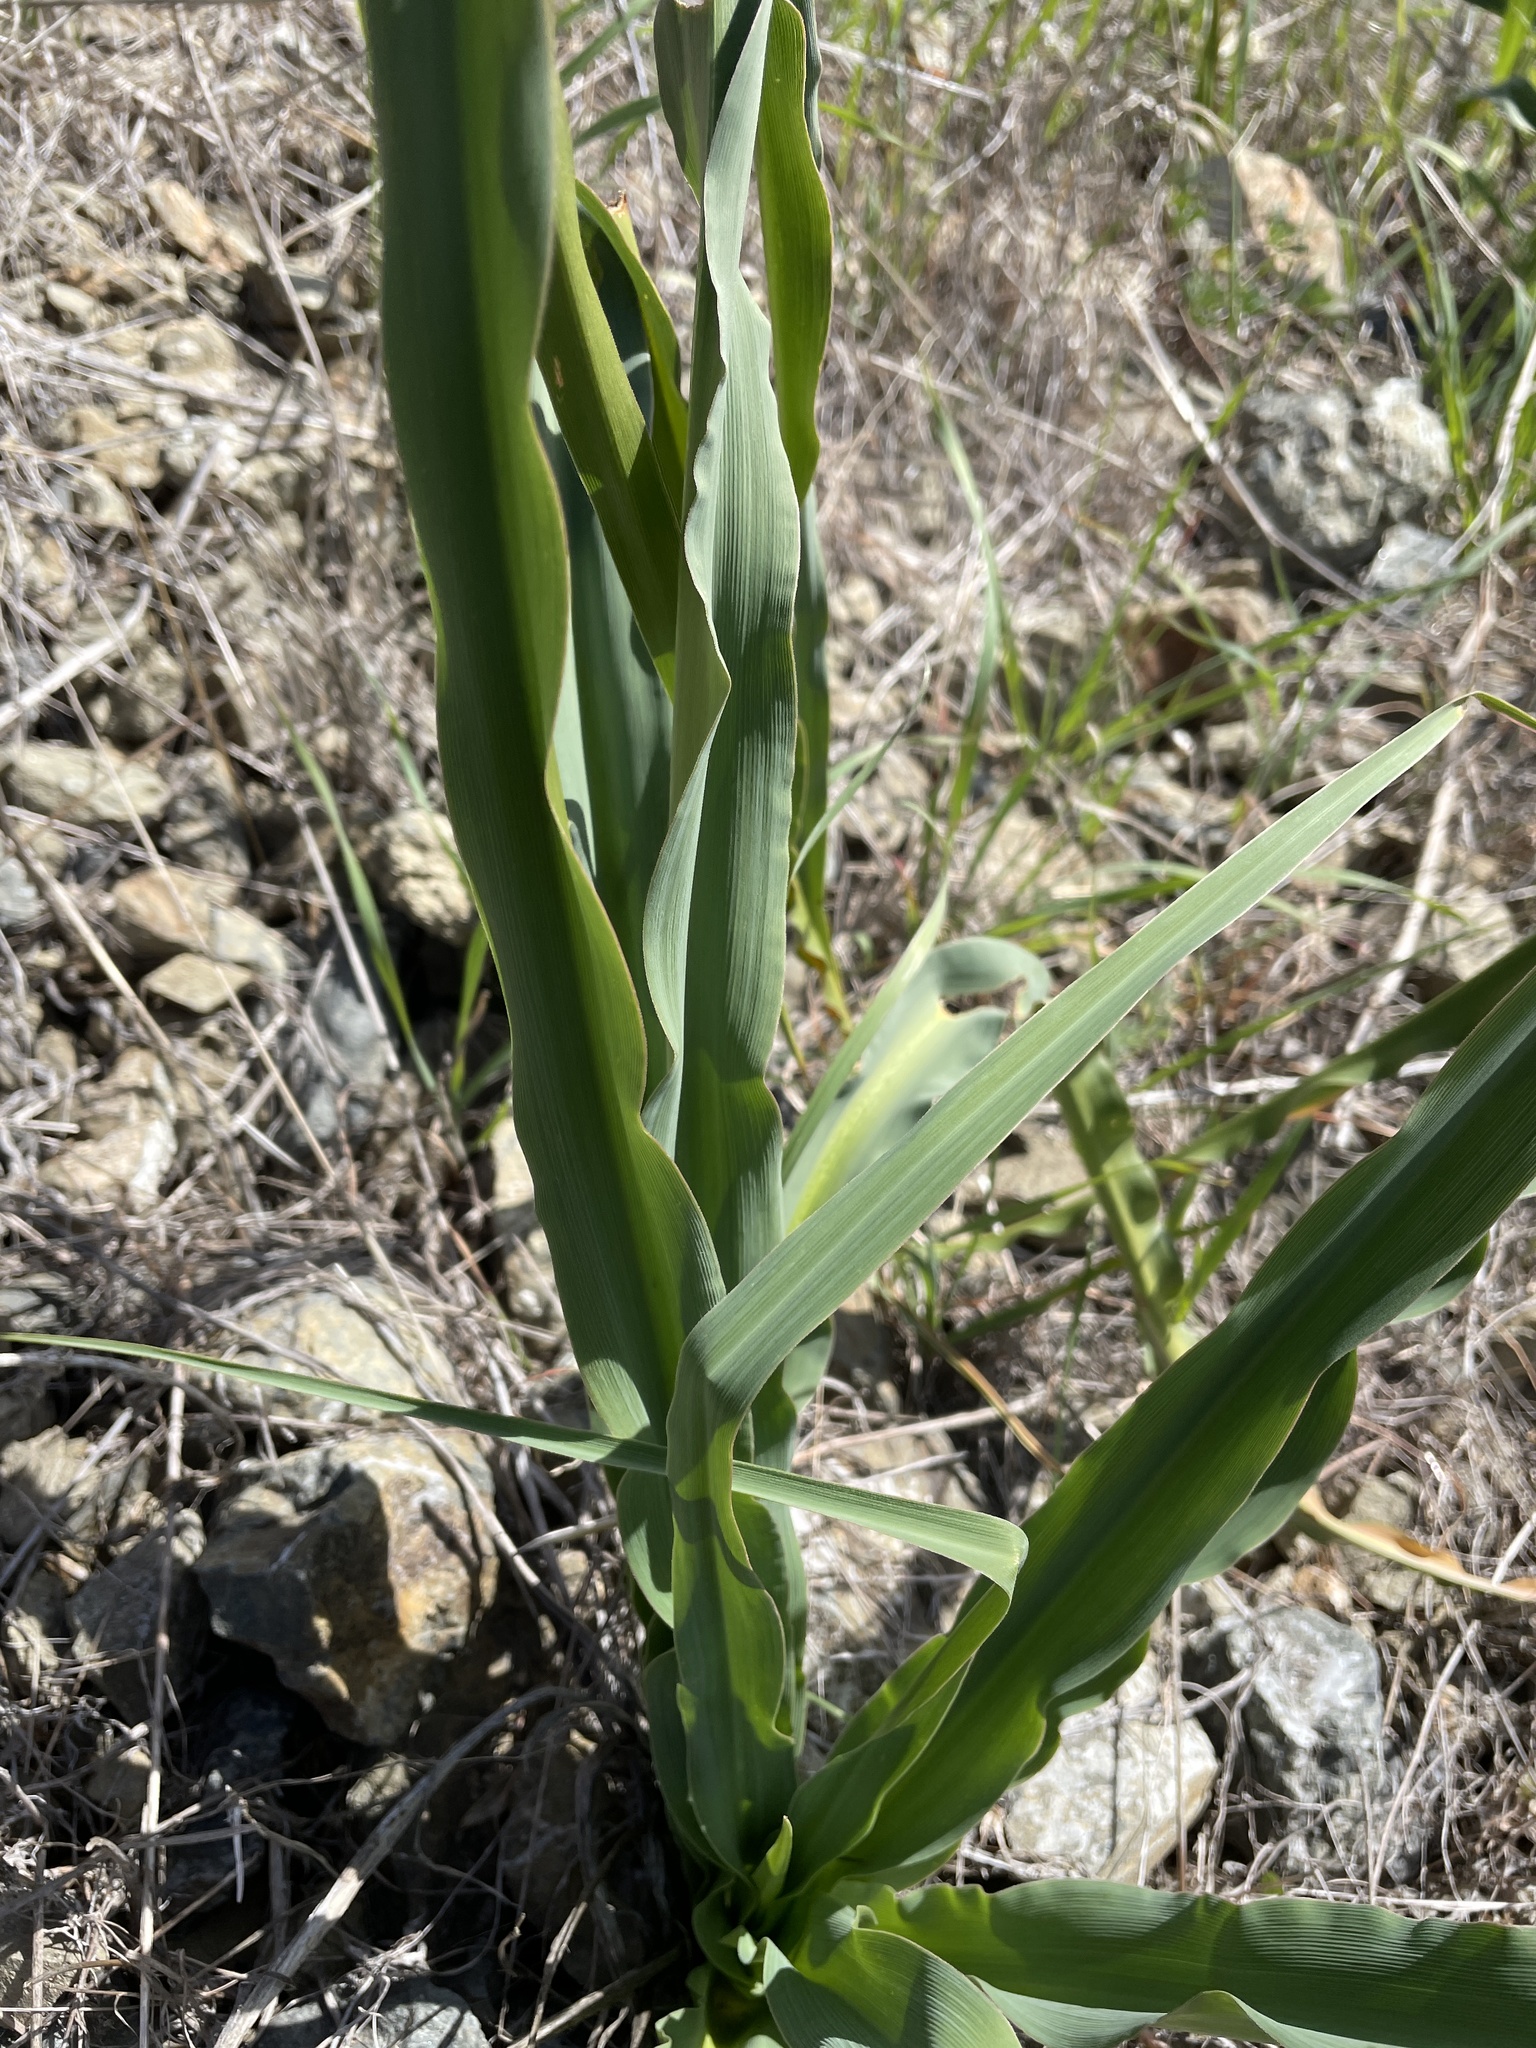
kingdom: Plantae
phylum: Tracheophyta
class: Liliopsida
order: Asparagales
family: Asparagaceae
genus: Chlorogalum
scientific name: Chlorogalum pomeridianum
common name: Amole
